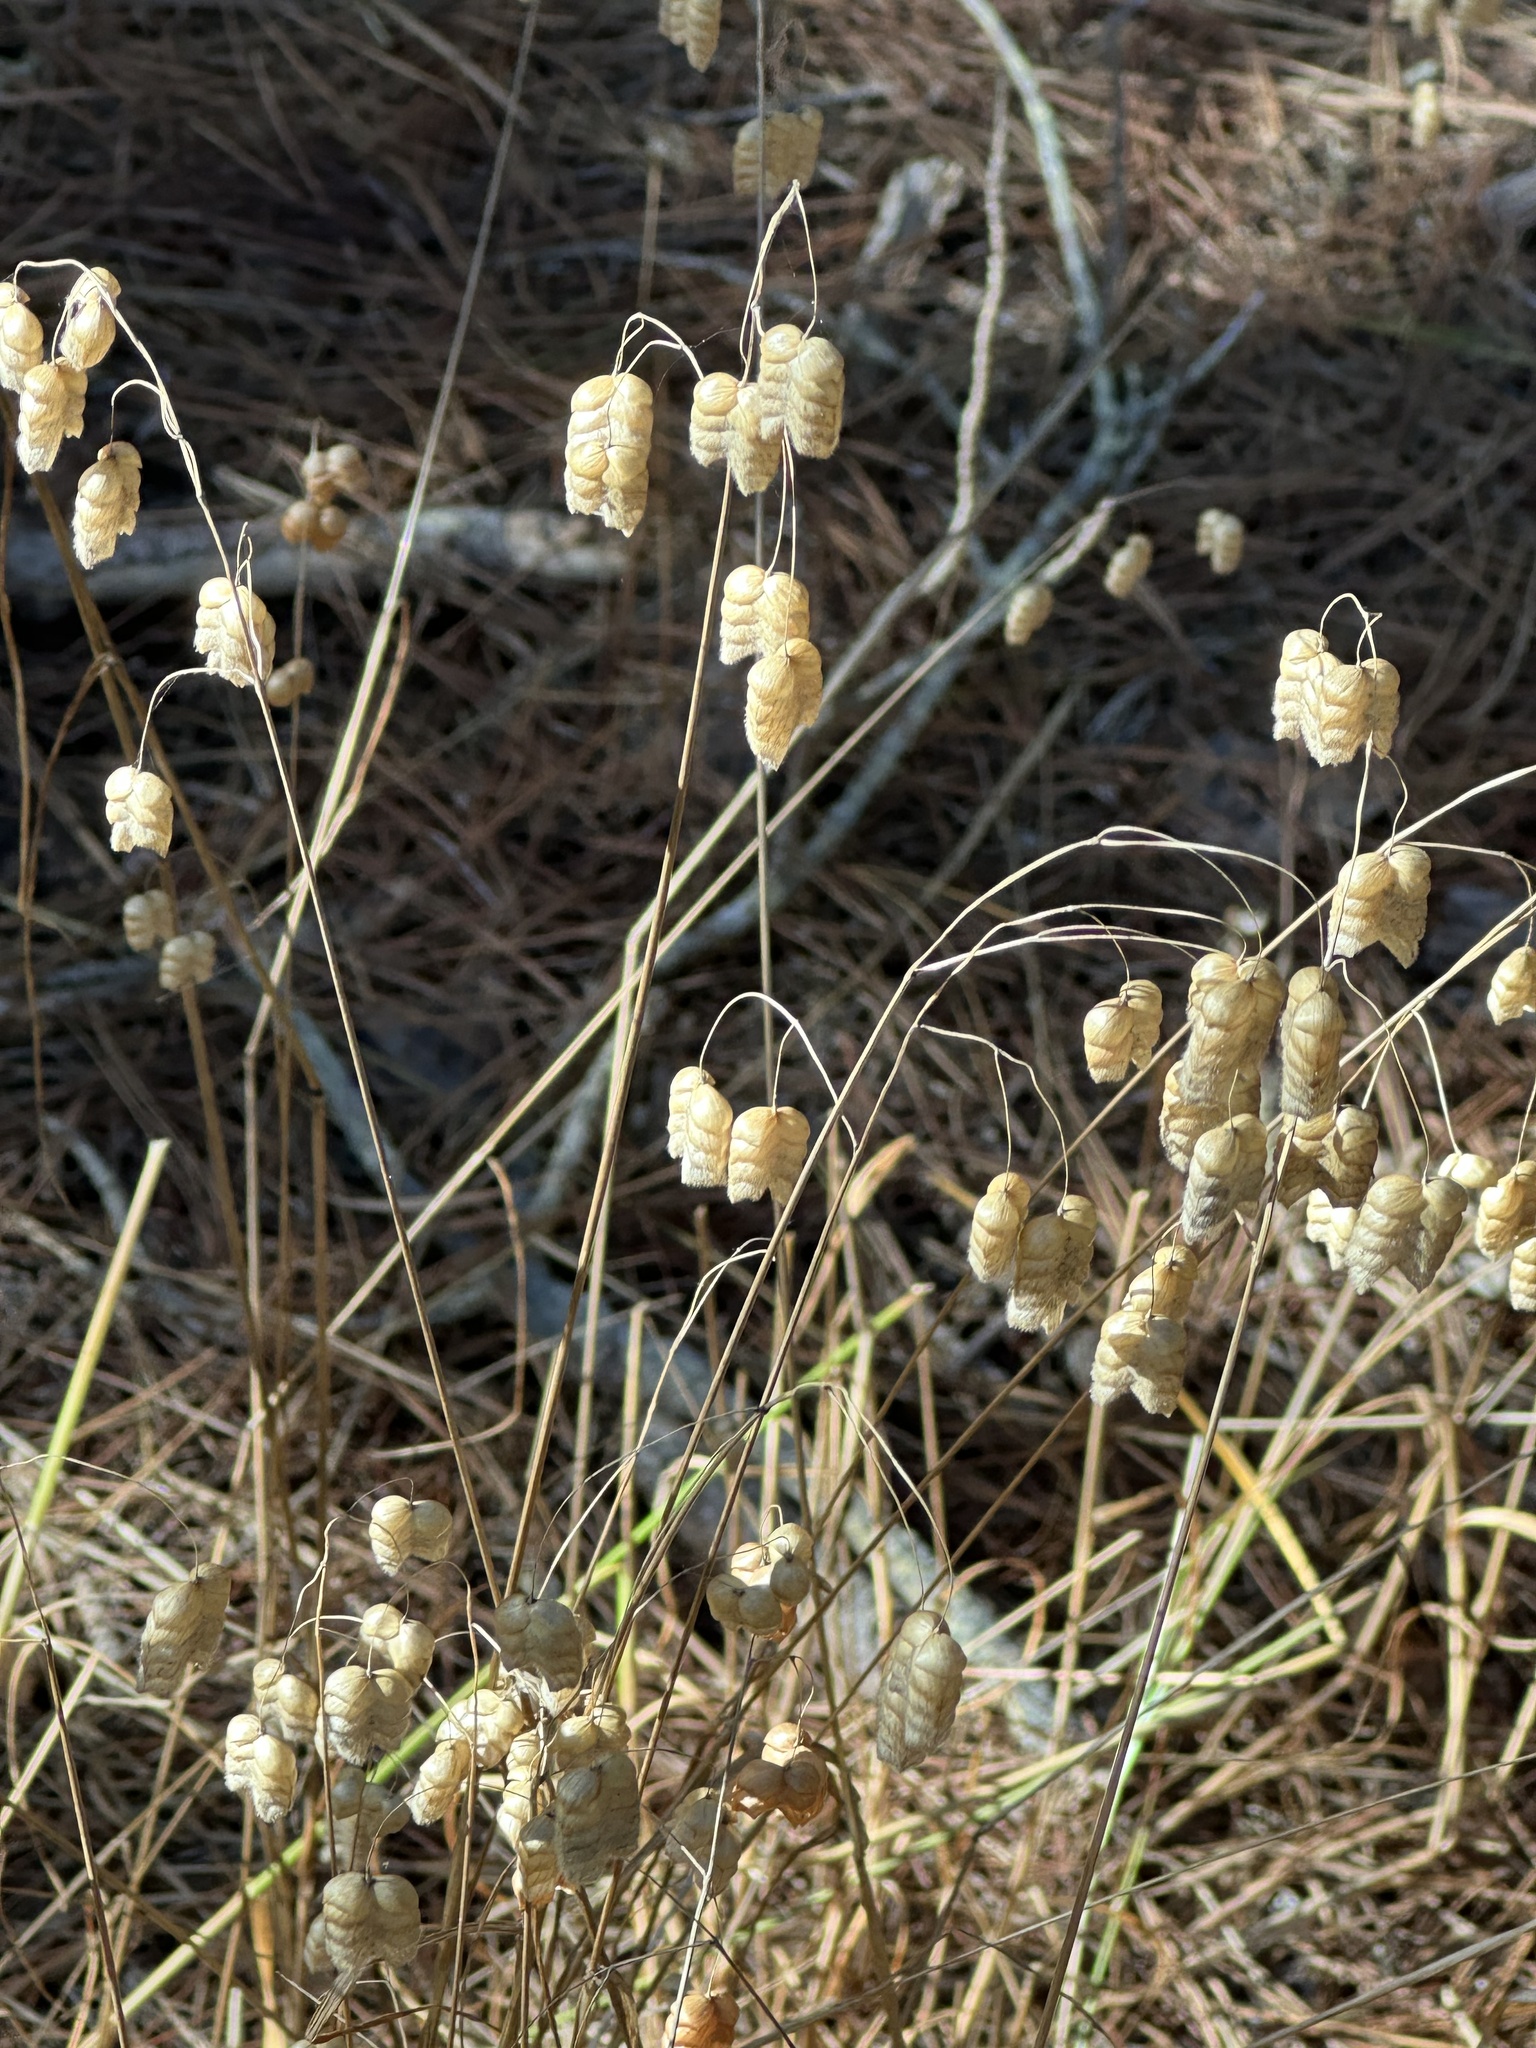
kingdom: Plantae
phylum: Tracheophyta
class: Liliopsida
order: Poales
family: Poaceae
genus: Briza
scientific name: Briza maxima
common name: Big quakinggrass
